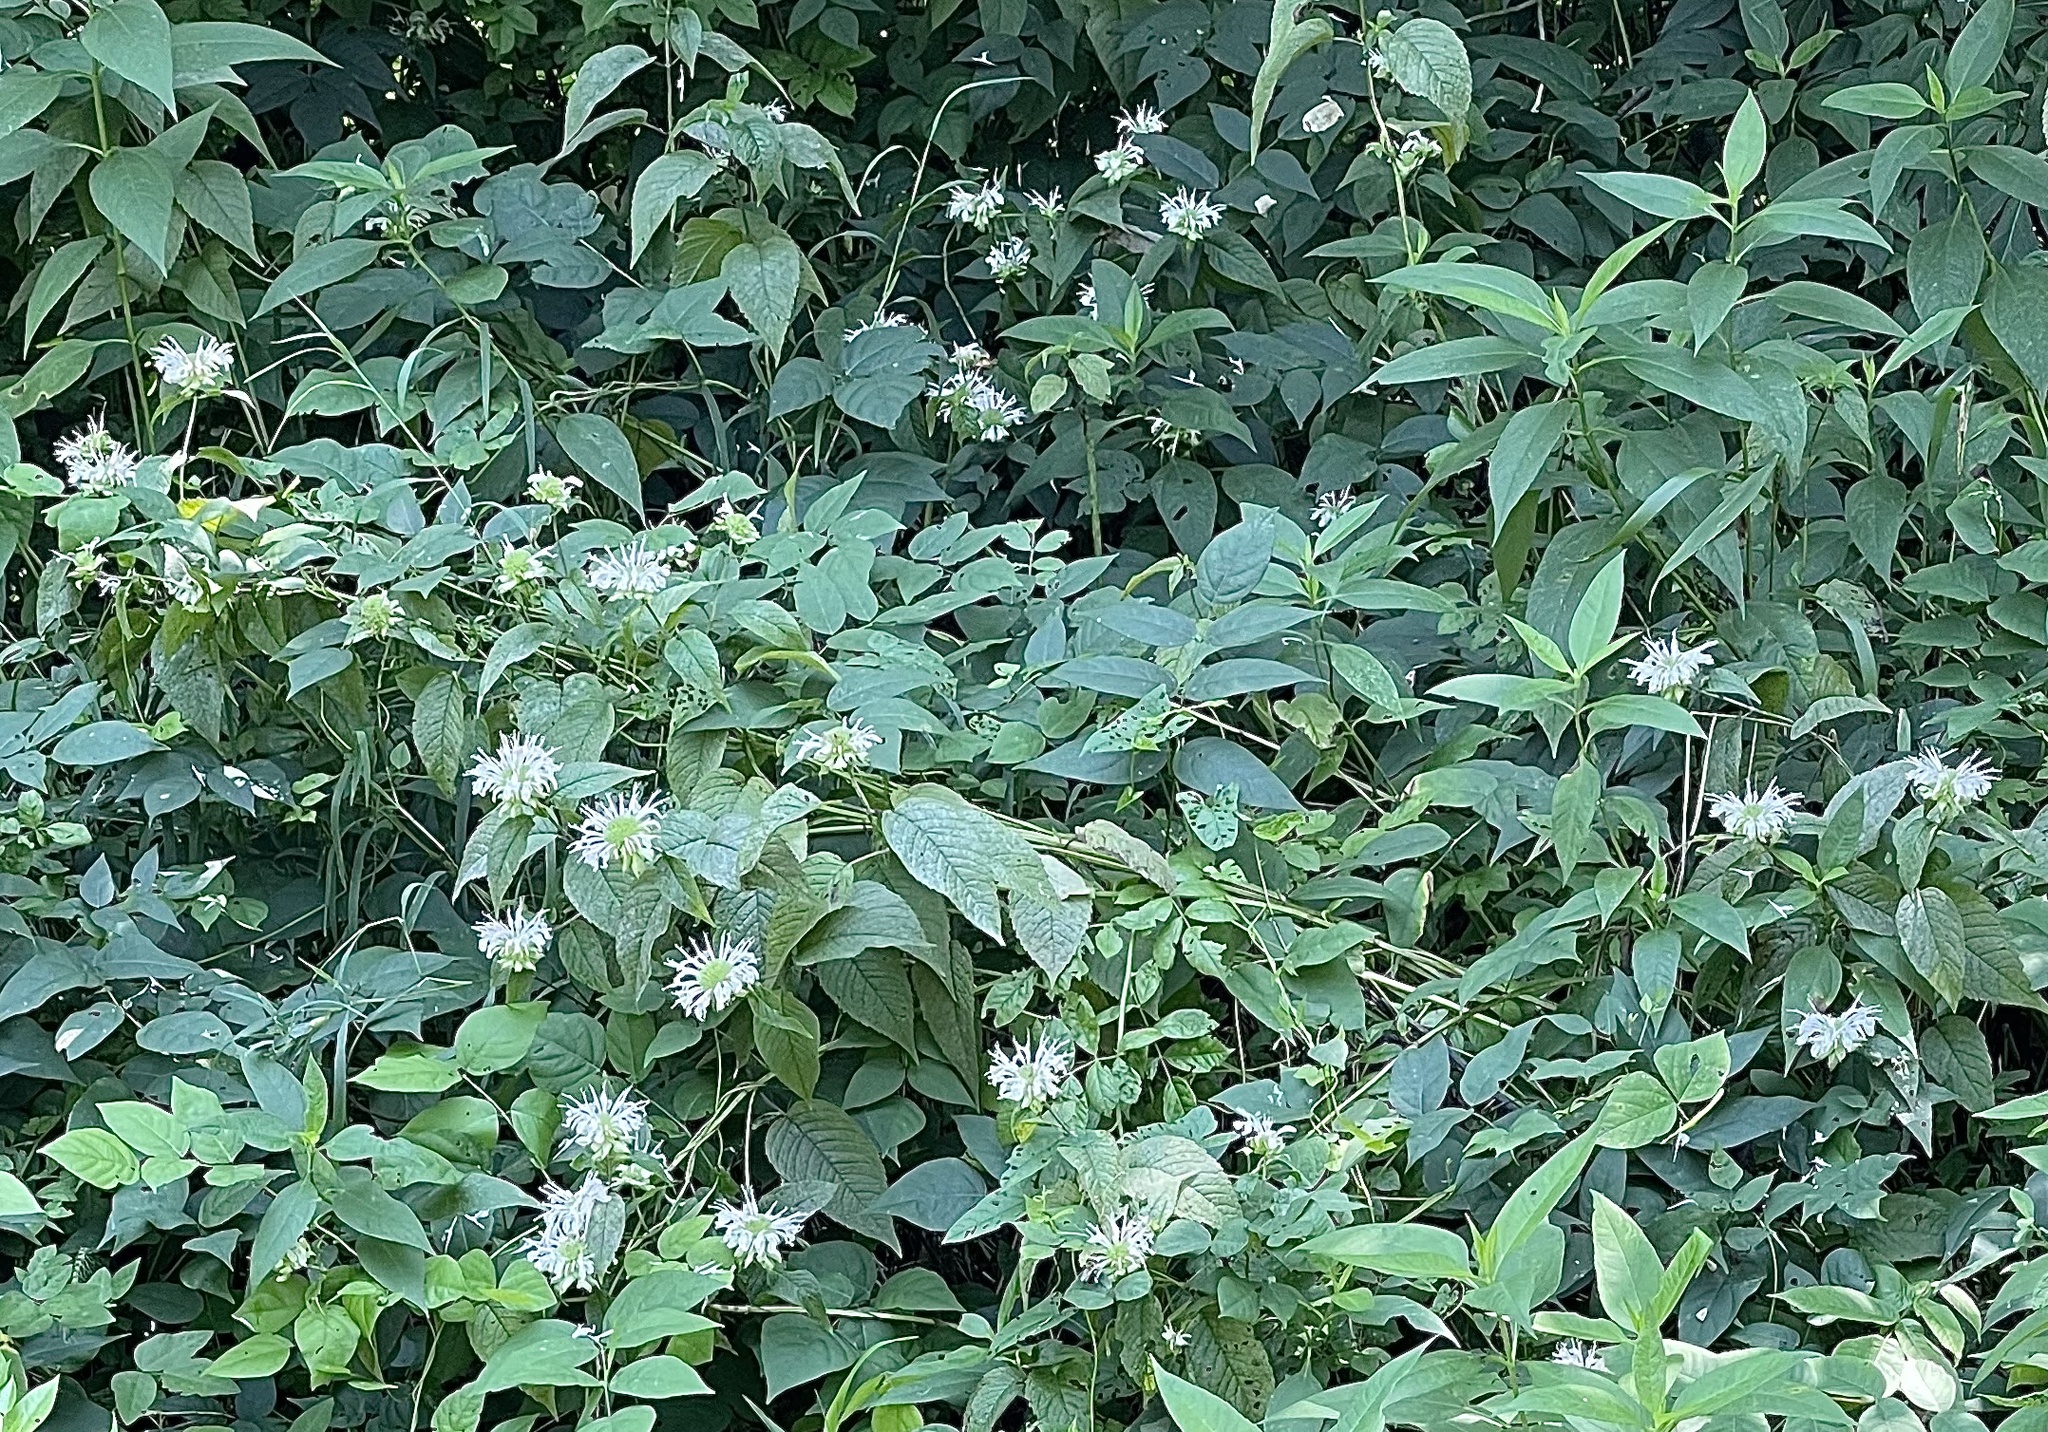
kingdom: Plantae
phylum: Tracheophyta
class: Magnoliopsida
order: Lamiales
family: Lamiaceae
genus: Monarda
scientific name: Monarda clinopodia
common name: Basil beebalm
